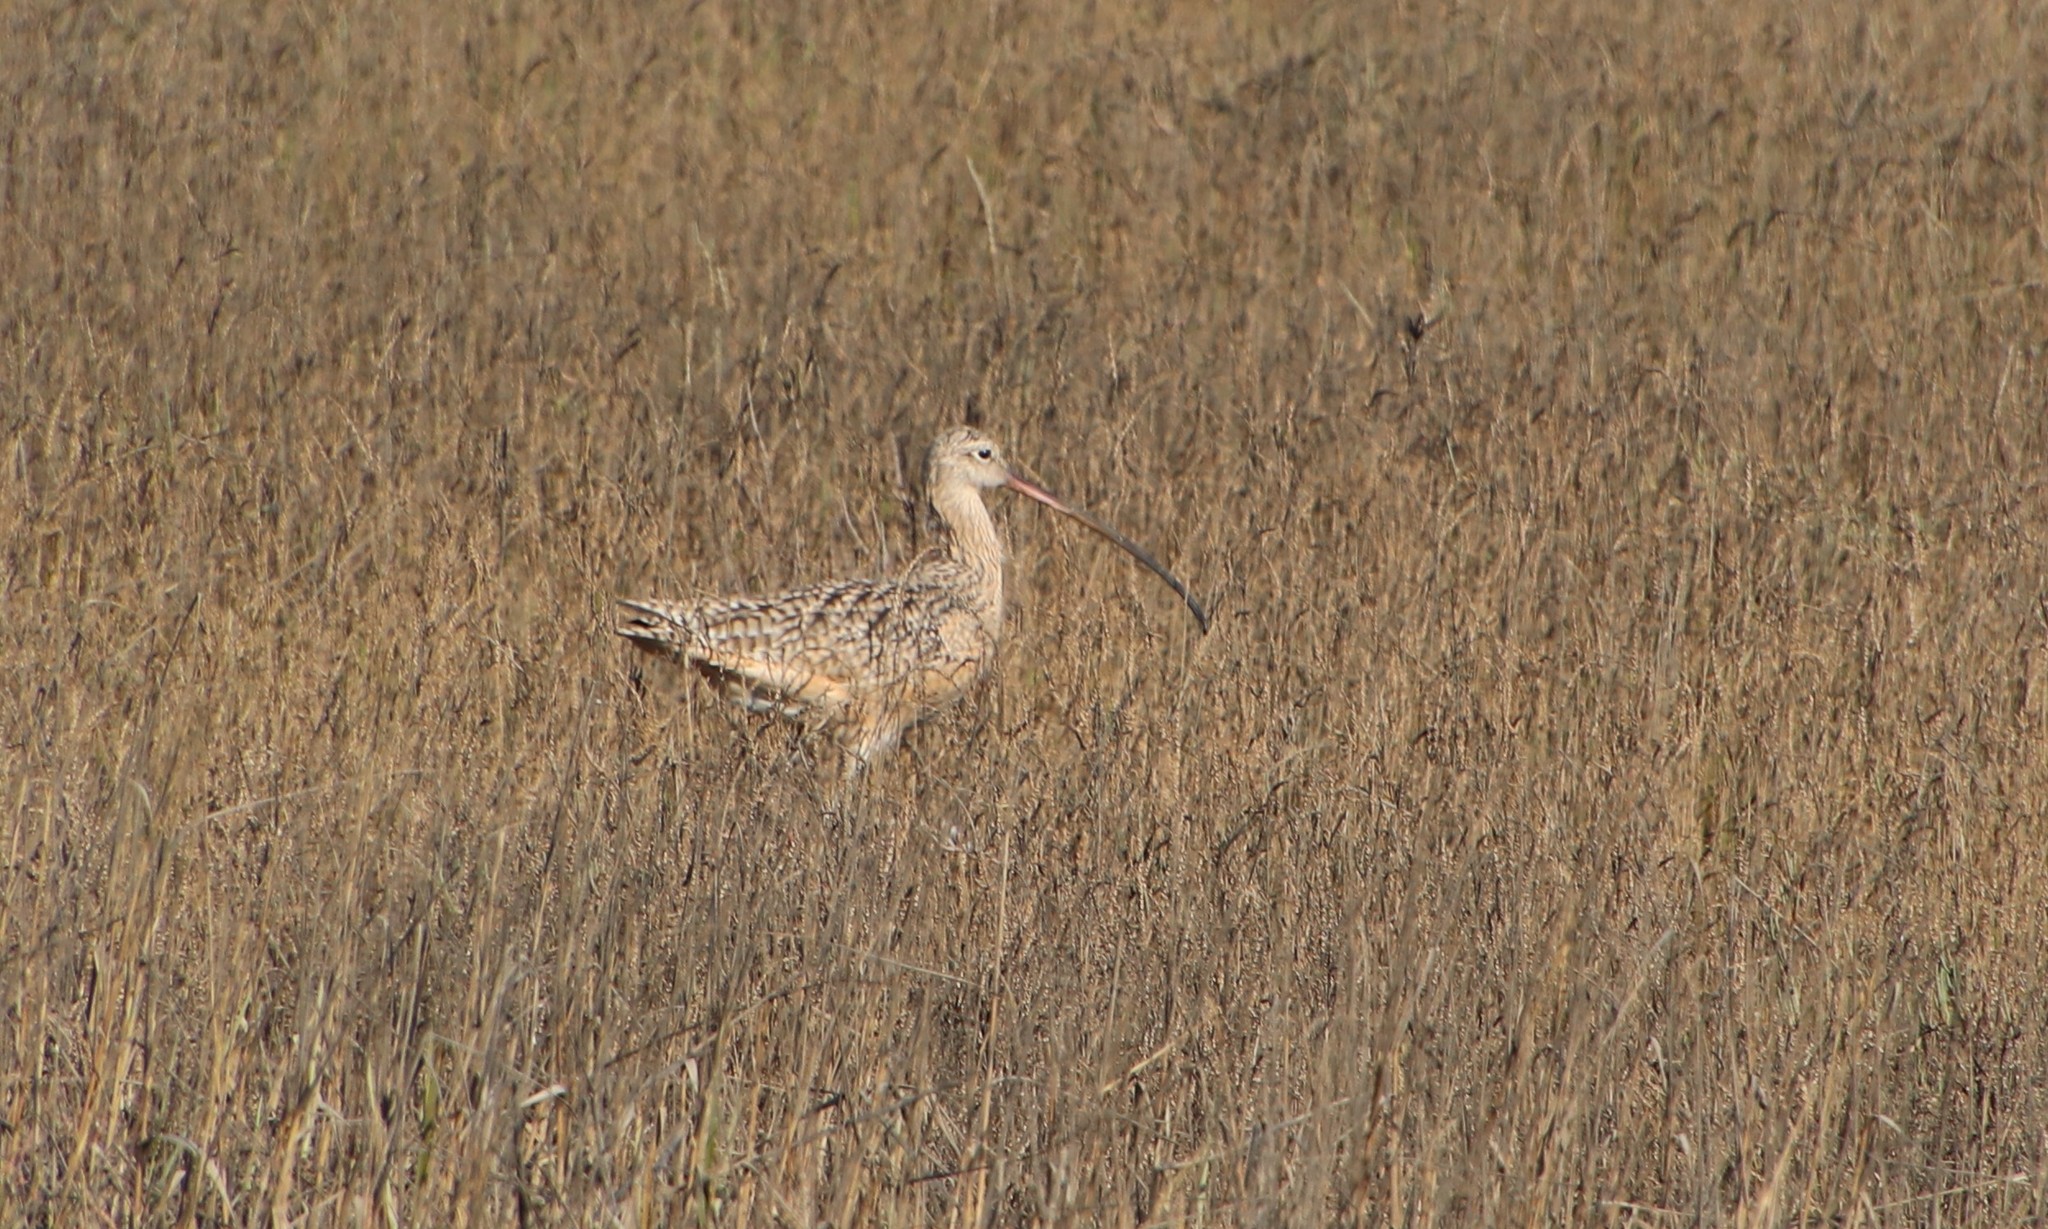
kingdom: Animalia
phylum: Chordata
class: Aves
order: Charadriiformes
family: Scolopacidae
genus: Numenius
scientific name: Numenius americanus
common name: Long-billed curlew
